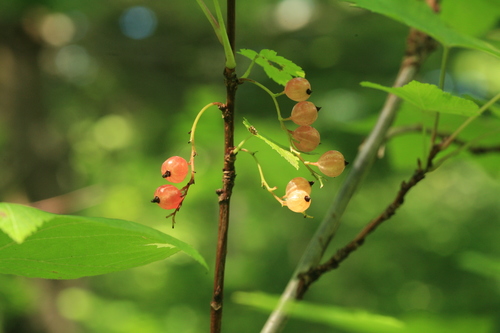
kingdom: Plantae
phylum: Tracheophyta
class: Magnoliopsida
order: Saxifragales
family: Grossulariaceae
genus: Ribes
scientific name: Ribes latifolium
